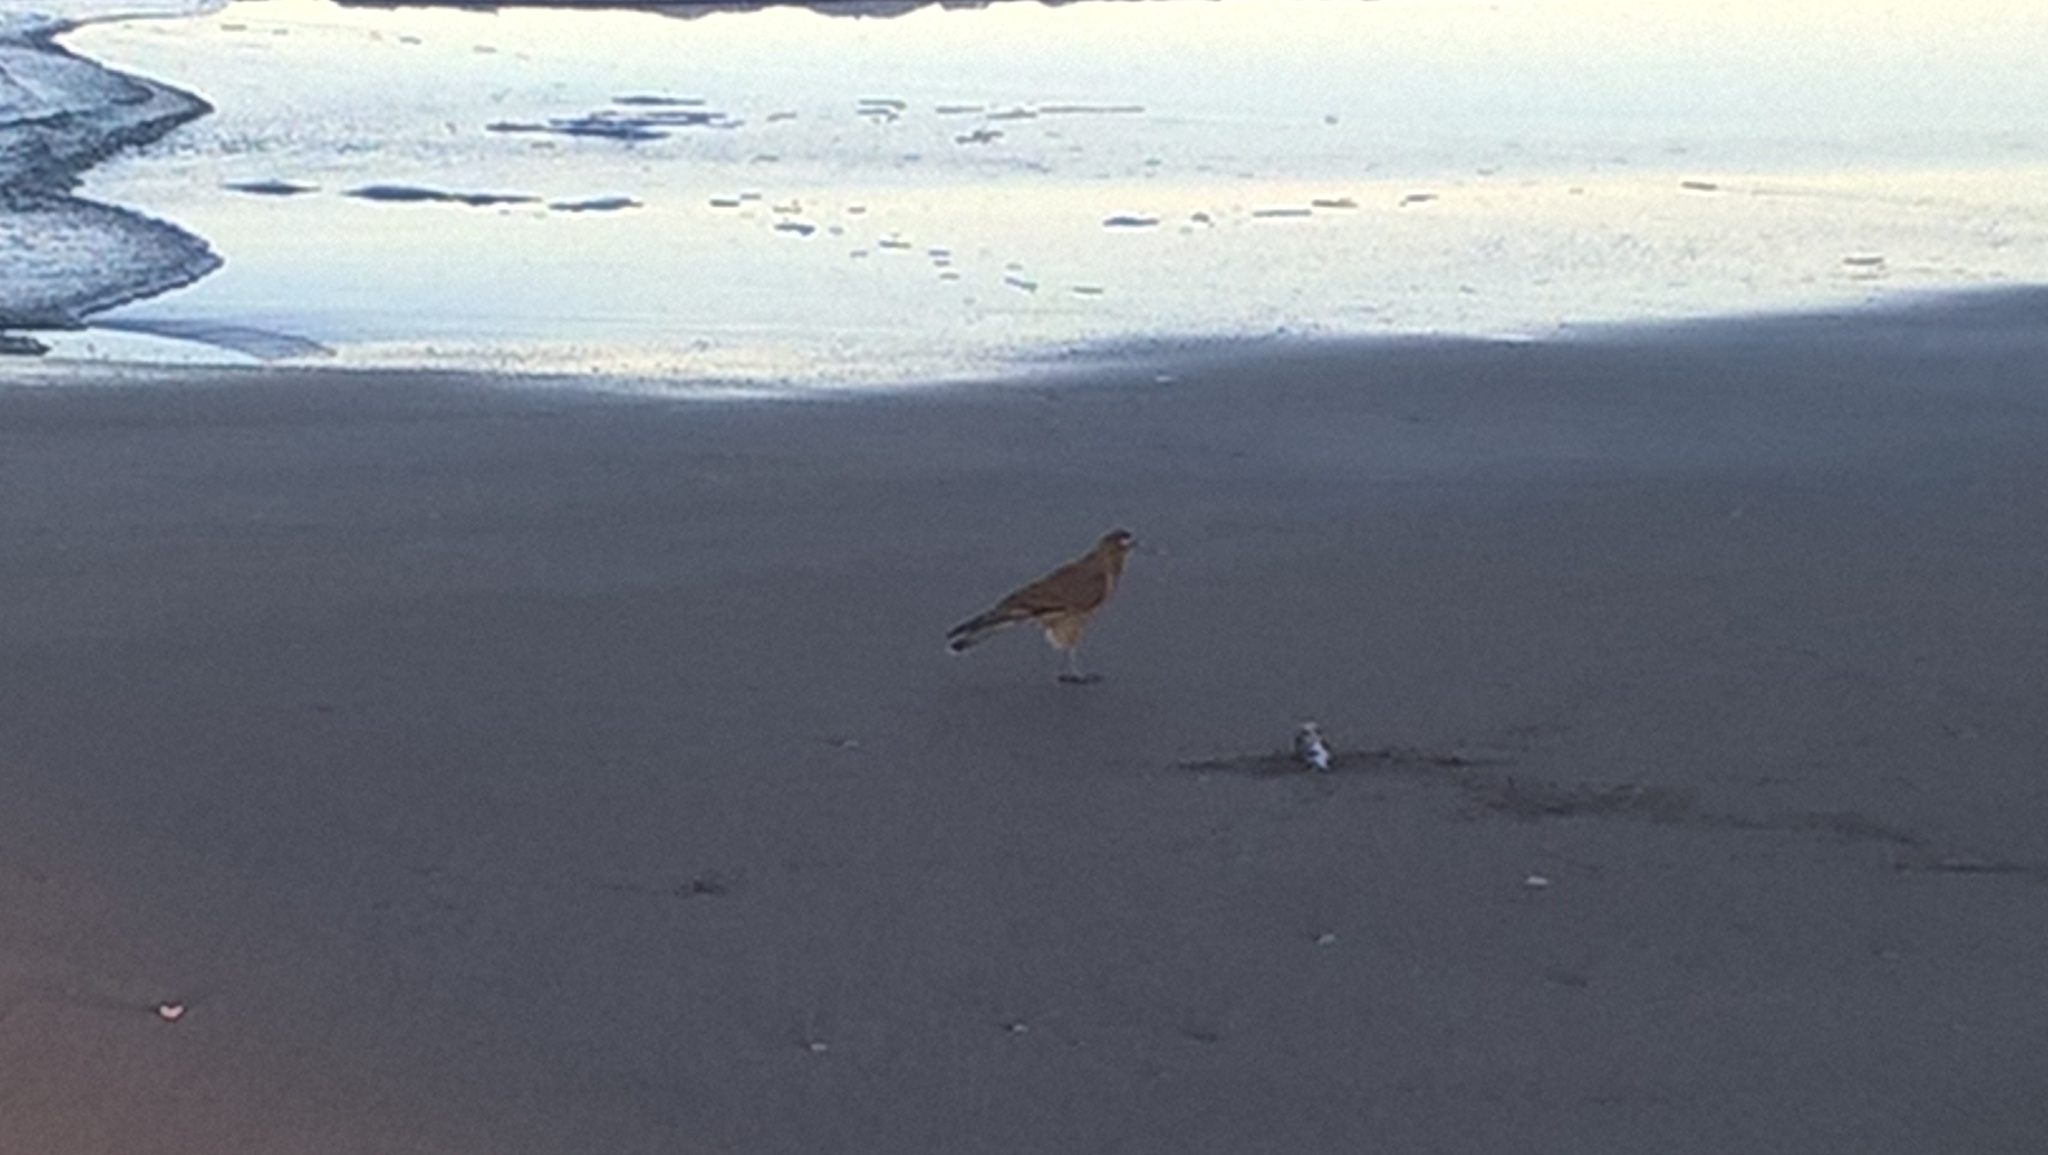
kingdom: Animalia
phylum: Chordata
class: Aves
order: Falconiformes
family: Falconidae
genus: Daptrius
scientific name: Daptrius
